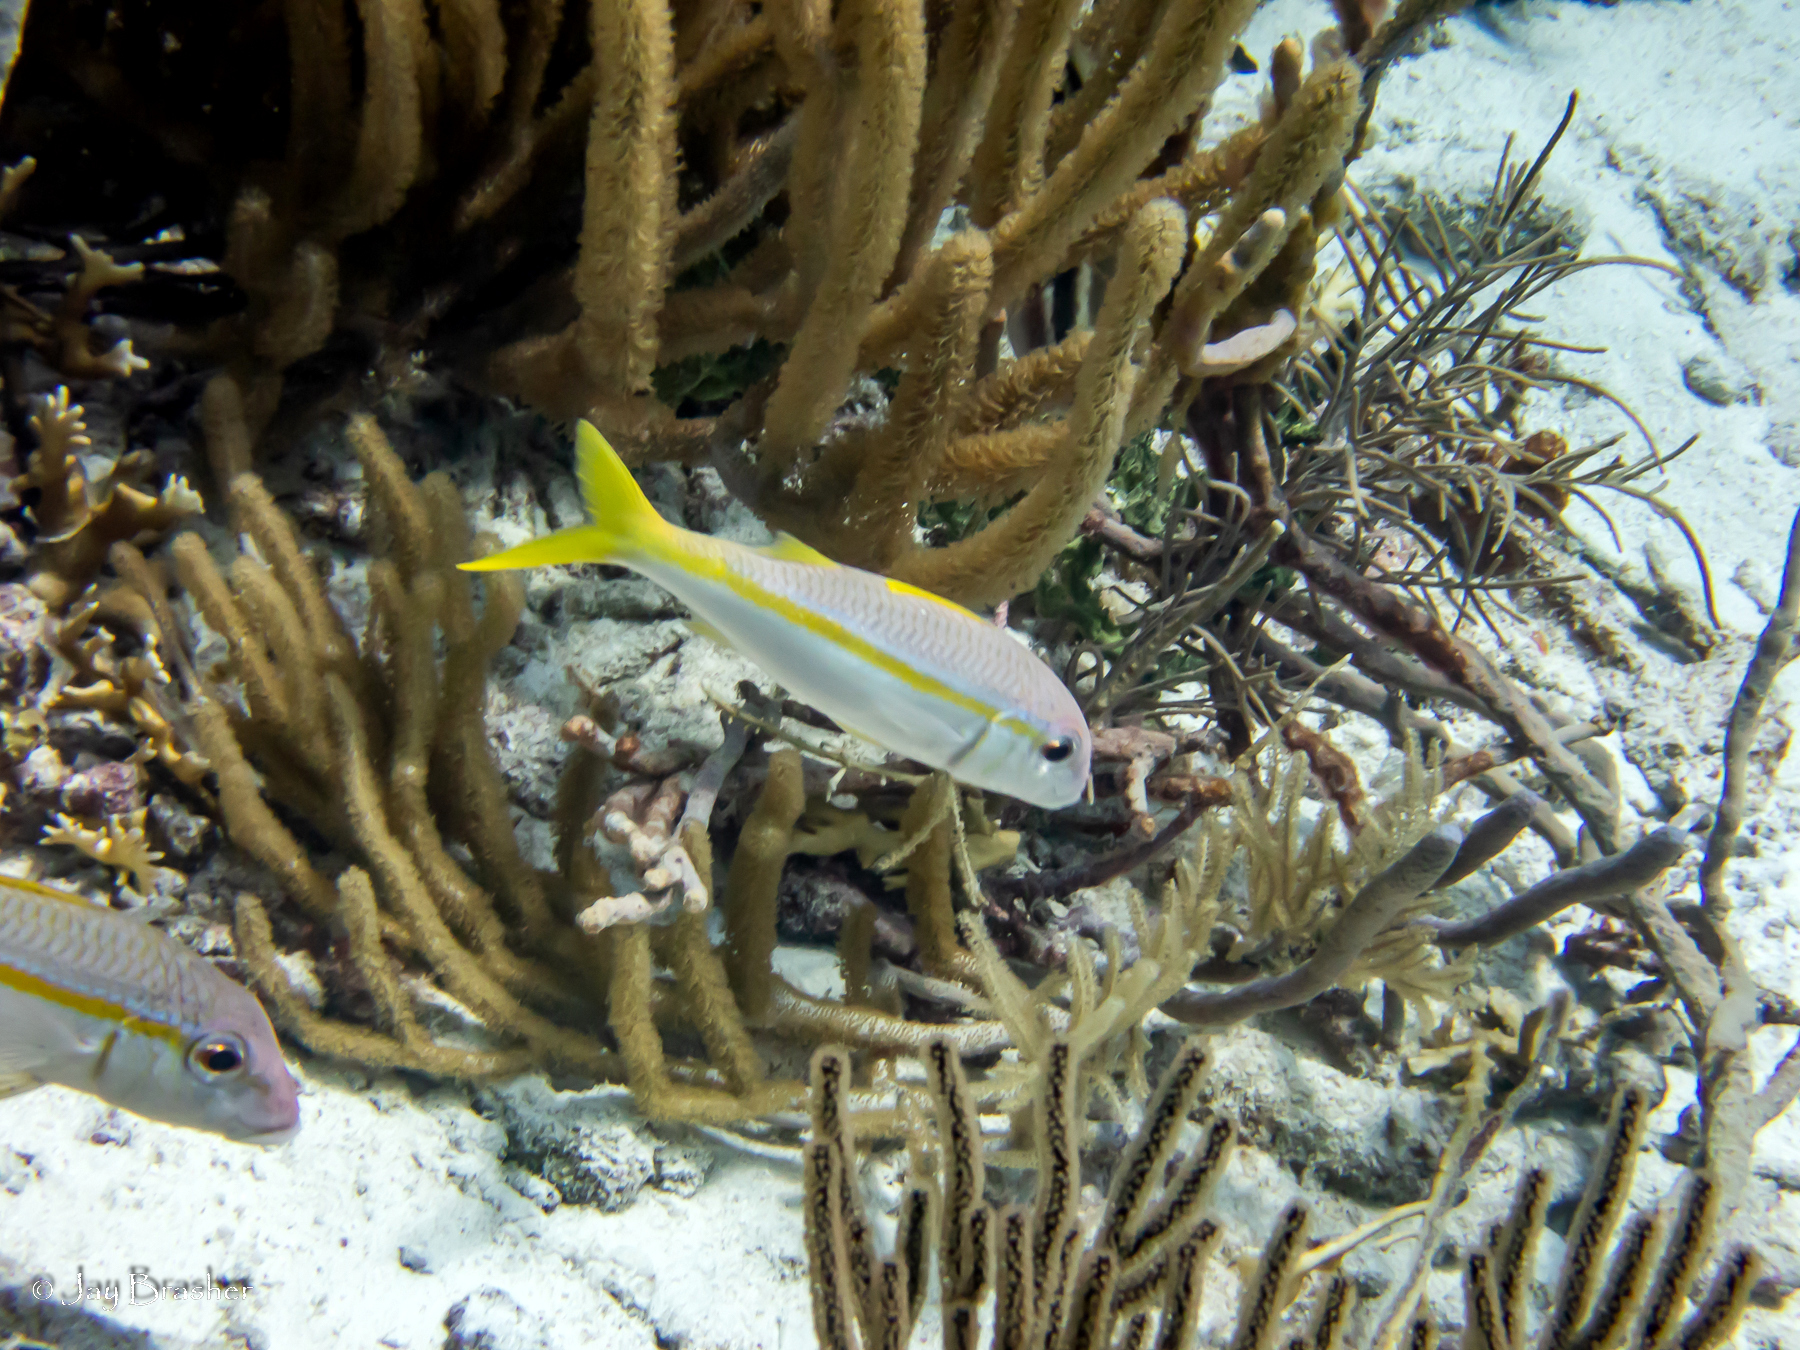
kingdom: Animalia
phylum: Chordata
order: Perciformes
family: Mullidae
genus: Mulloidichthys
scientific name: Mulloidichthys martinicus
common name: Yellow goatfish
